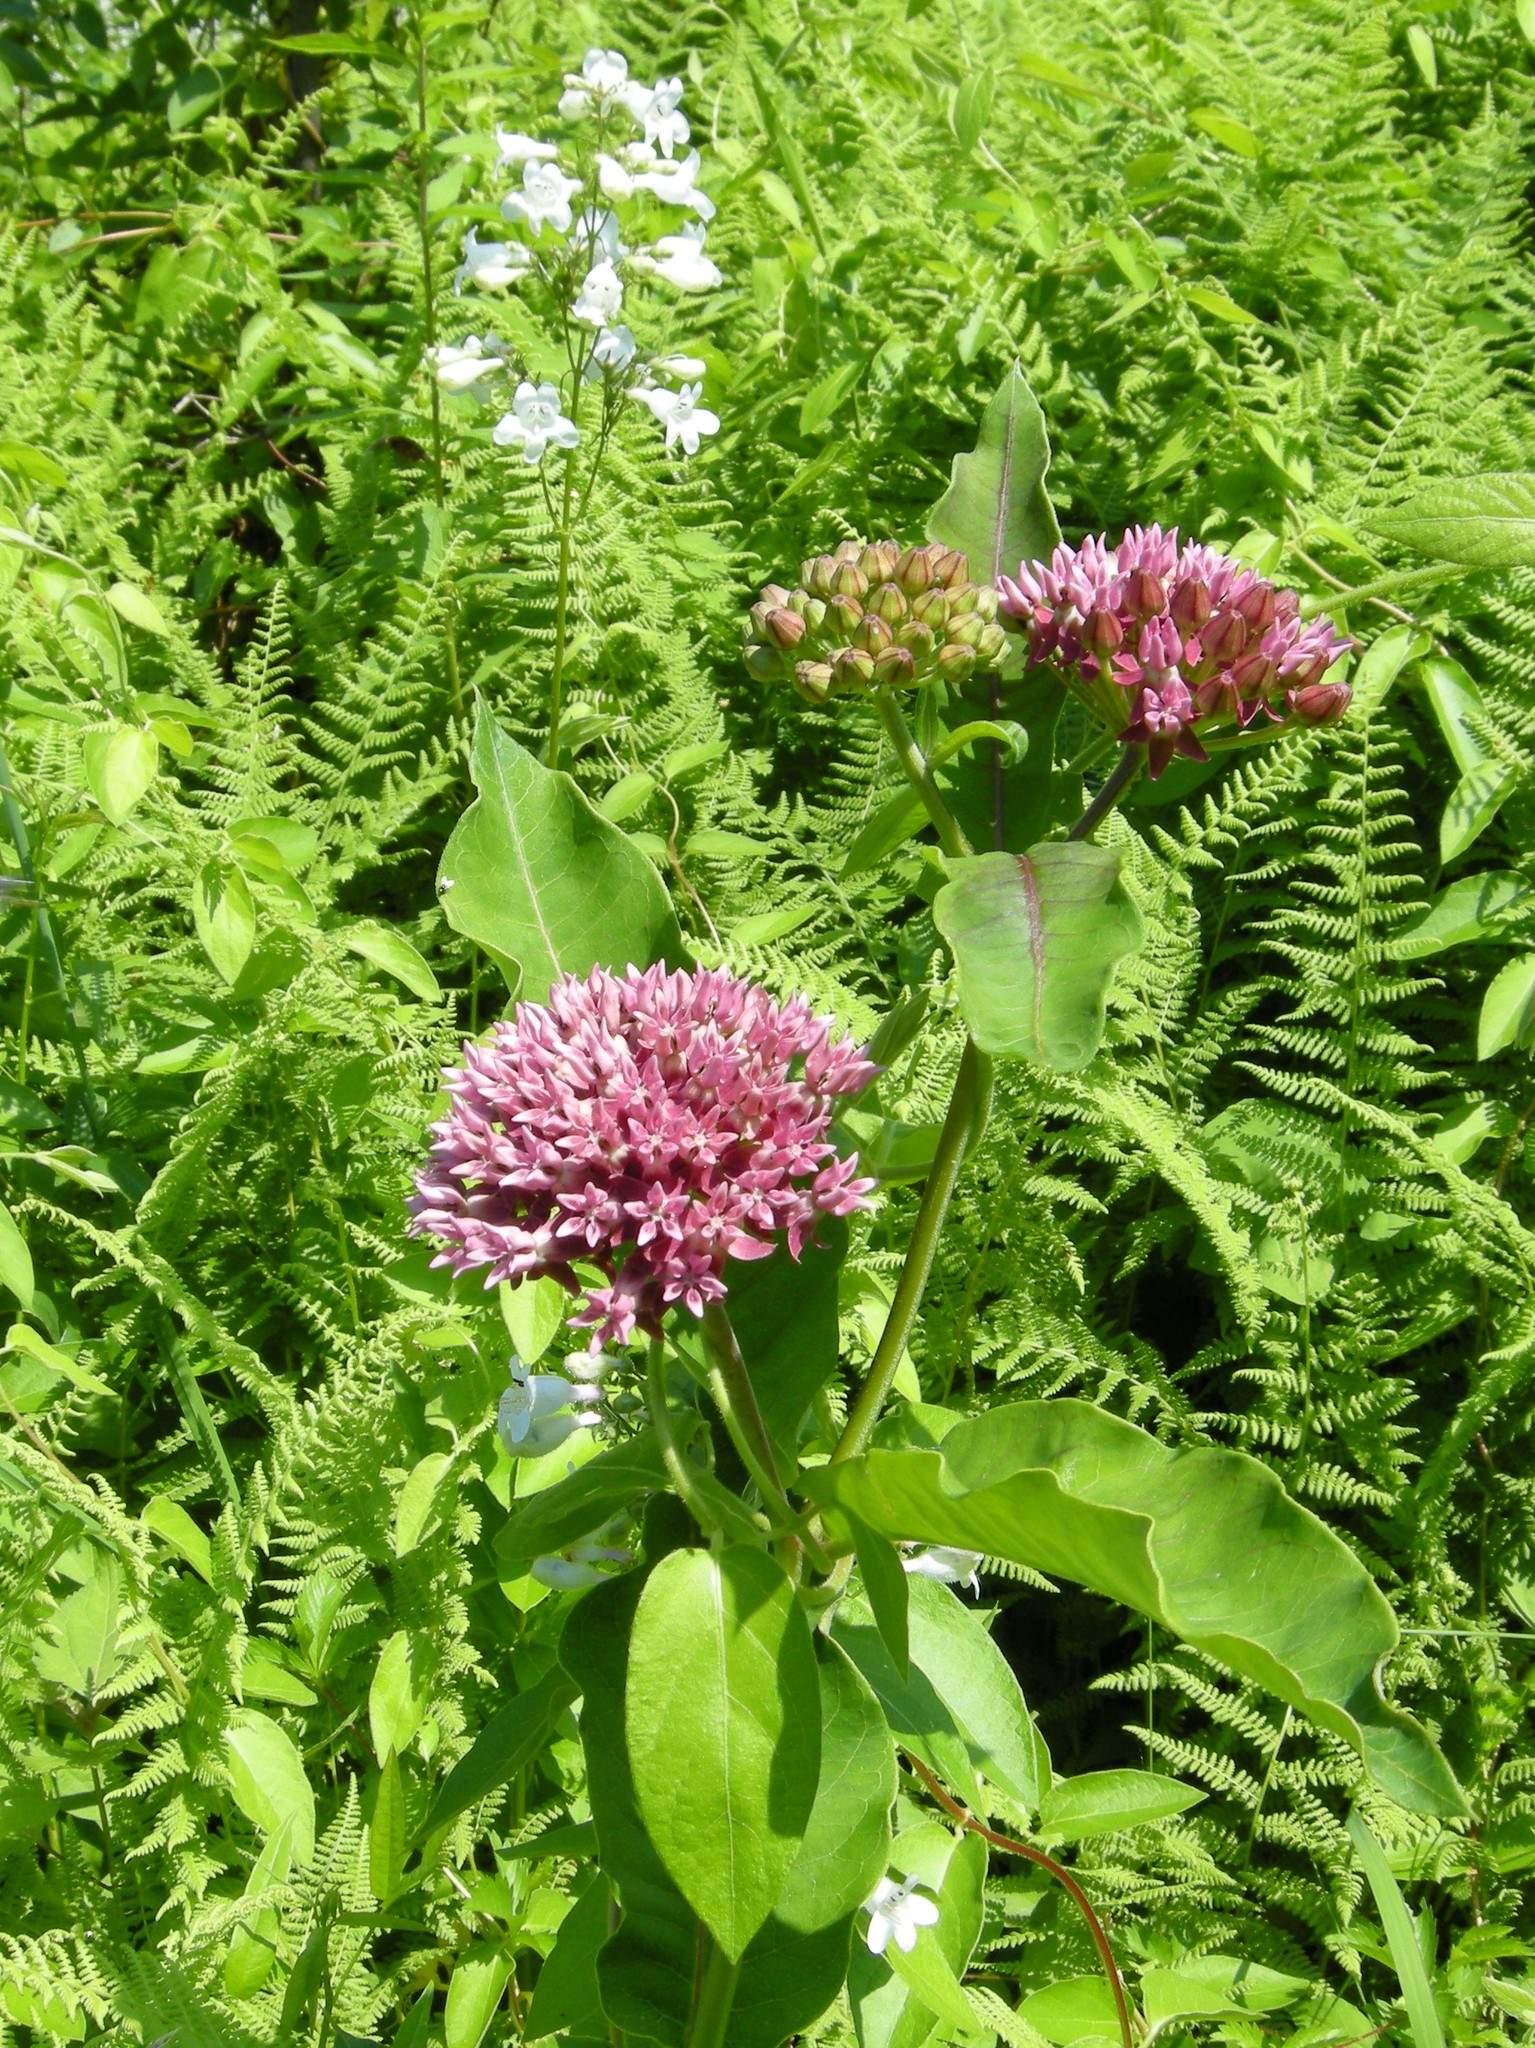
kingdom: Plantae
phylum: Tracheophyta
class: Magnoliopsida
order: Gentianales
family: Apocynaceae
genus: Asclepias
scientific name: Asclepias purpurascens
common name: Purple milkweed
